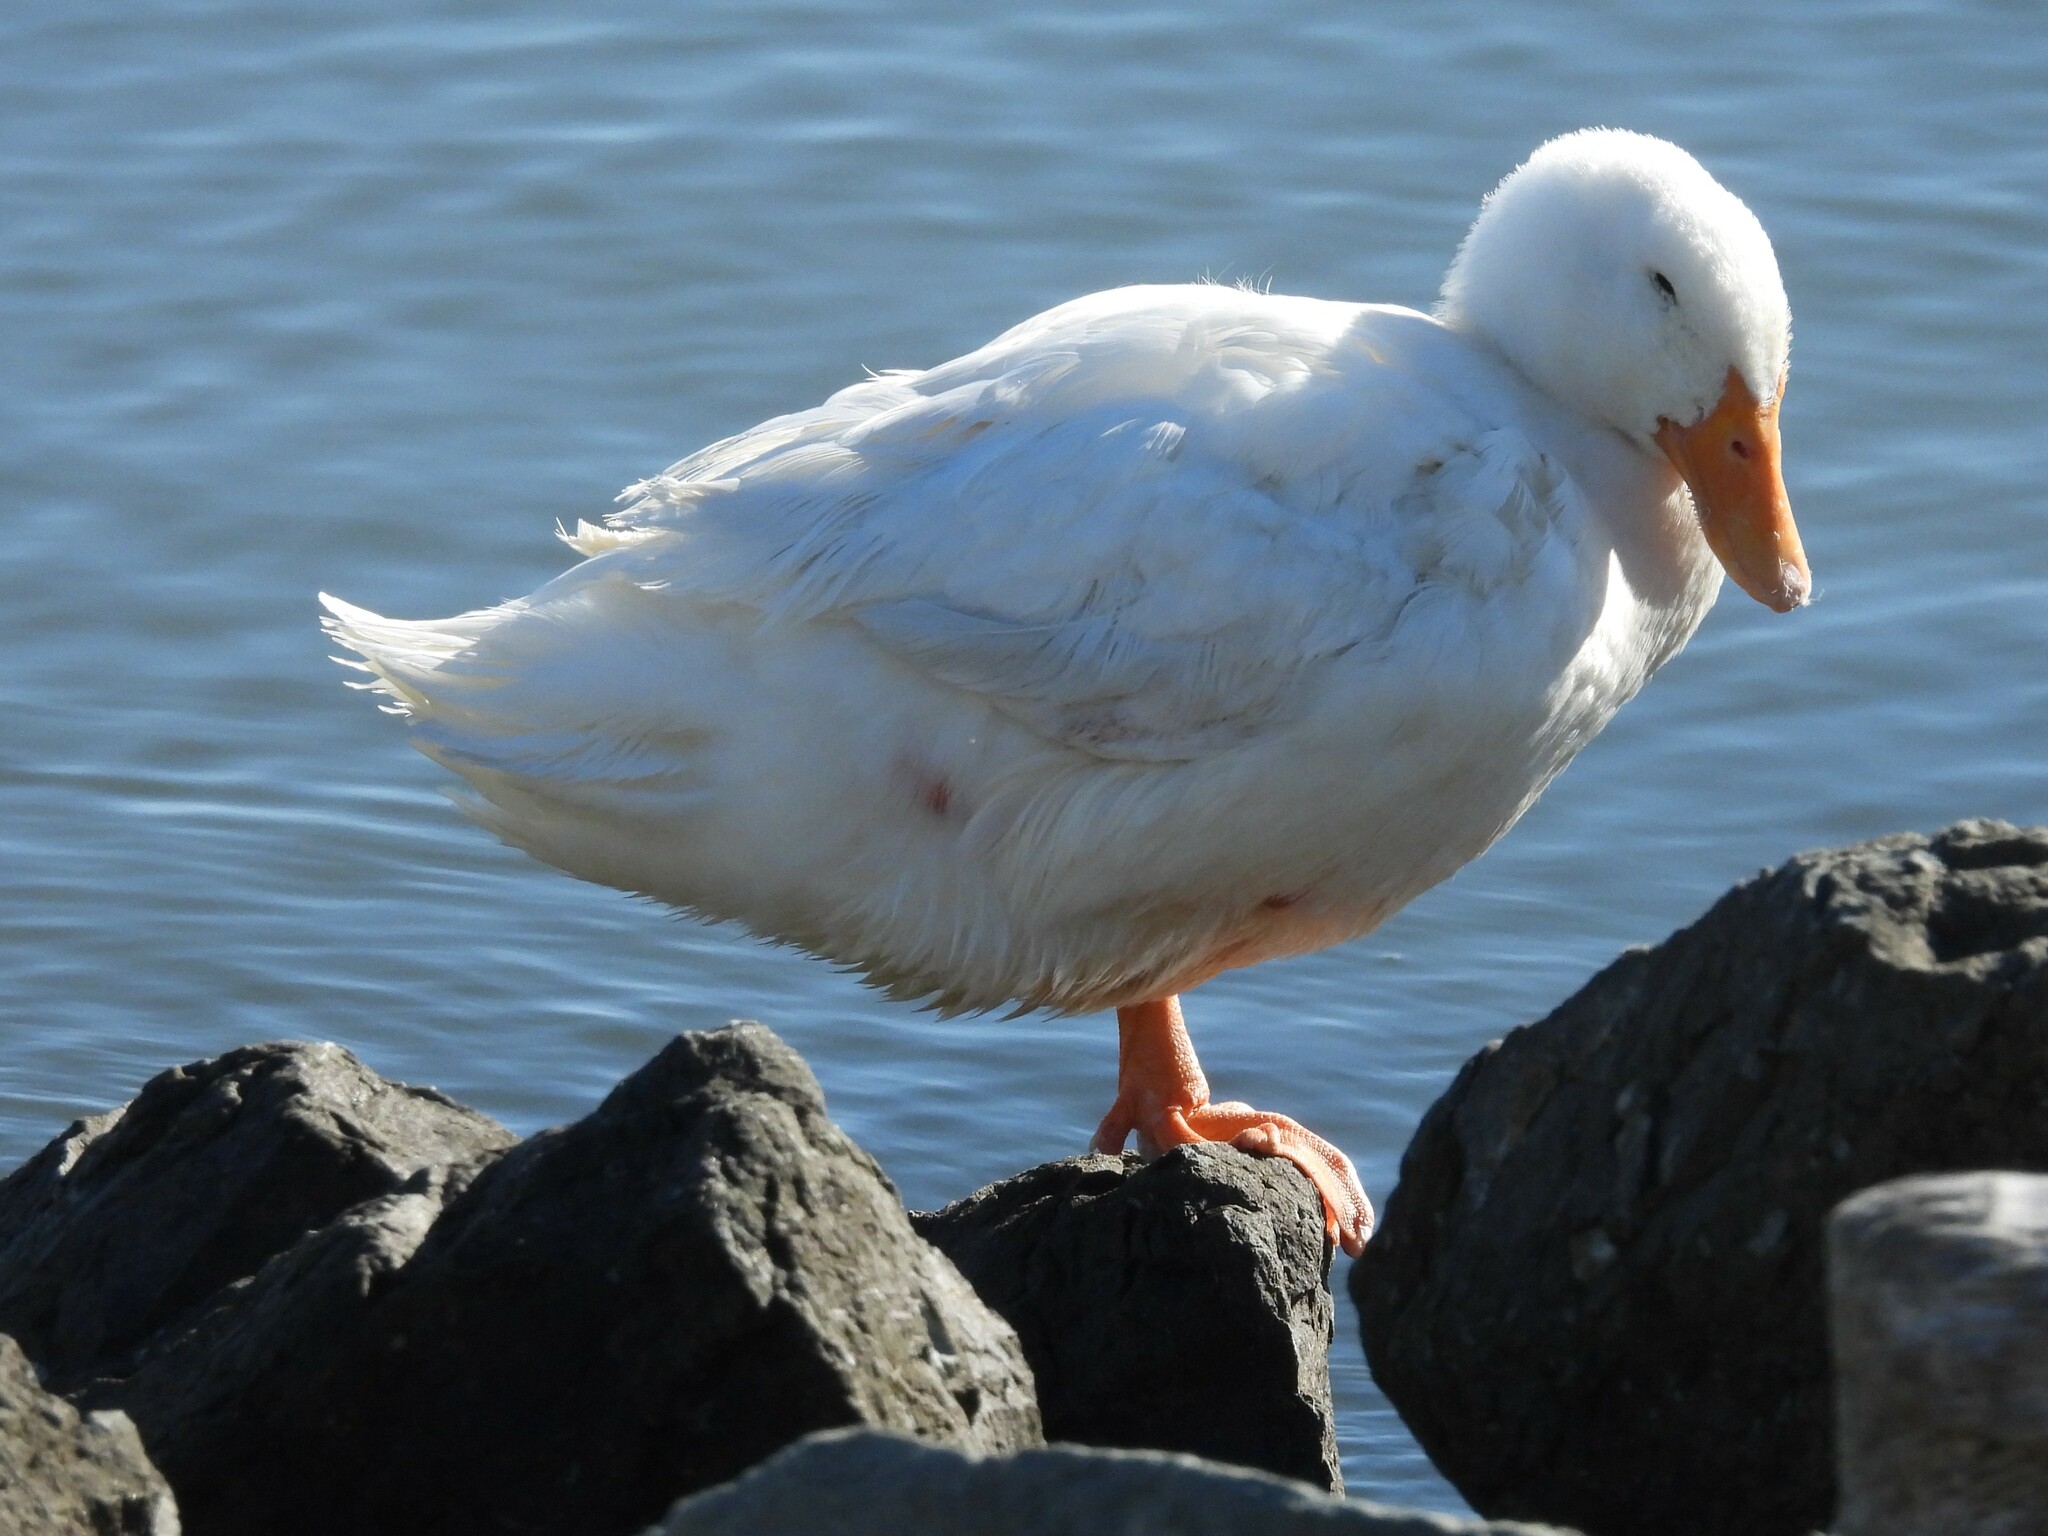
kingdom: Animalia
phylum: Chordata
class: Aves
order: Anseriformes
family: Anatidae
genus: Anas
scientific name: Anas platyrhynchos
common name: Mallard
